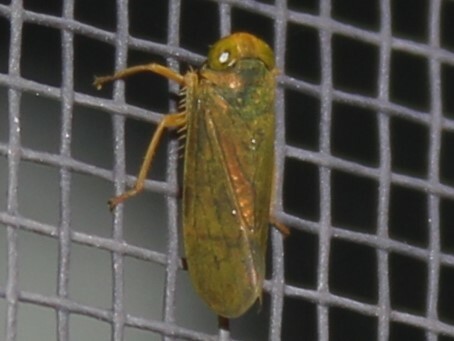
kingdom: Animalia
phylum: Arthropoda
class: Insecta
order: Hemiptera
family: Cicadellidae
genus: Jikradia
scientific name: Jikradia olitoria
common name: Coppery leafhopper
